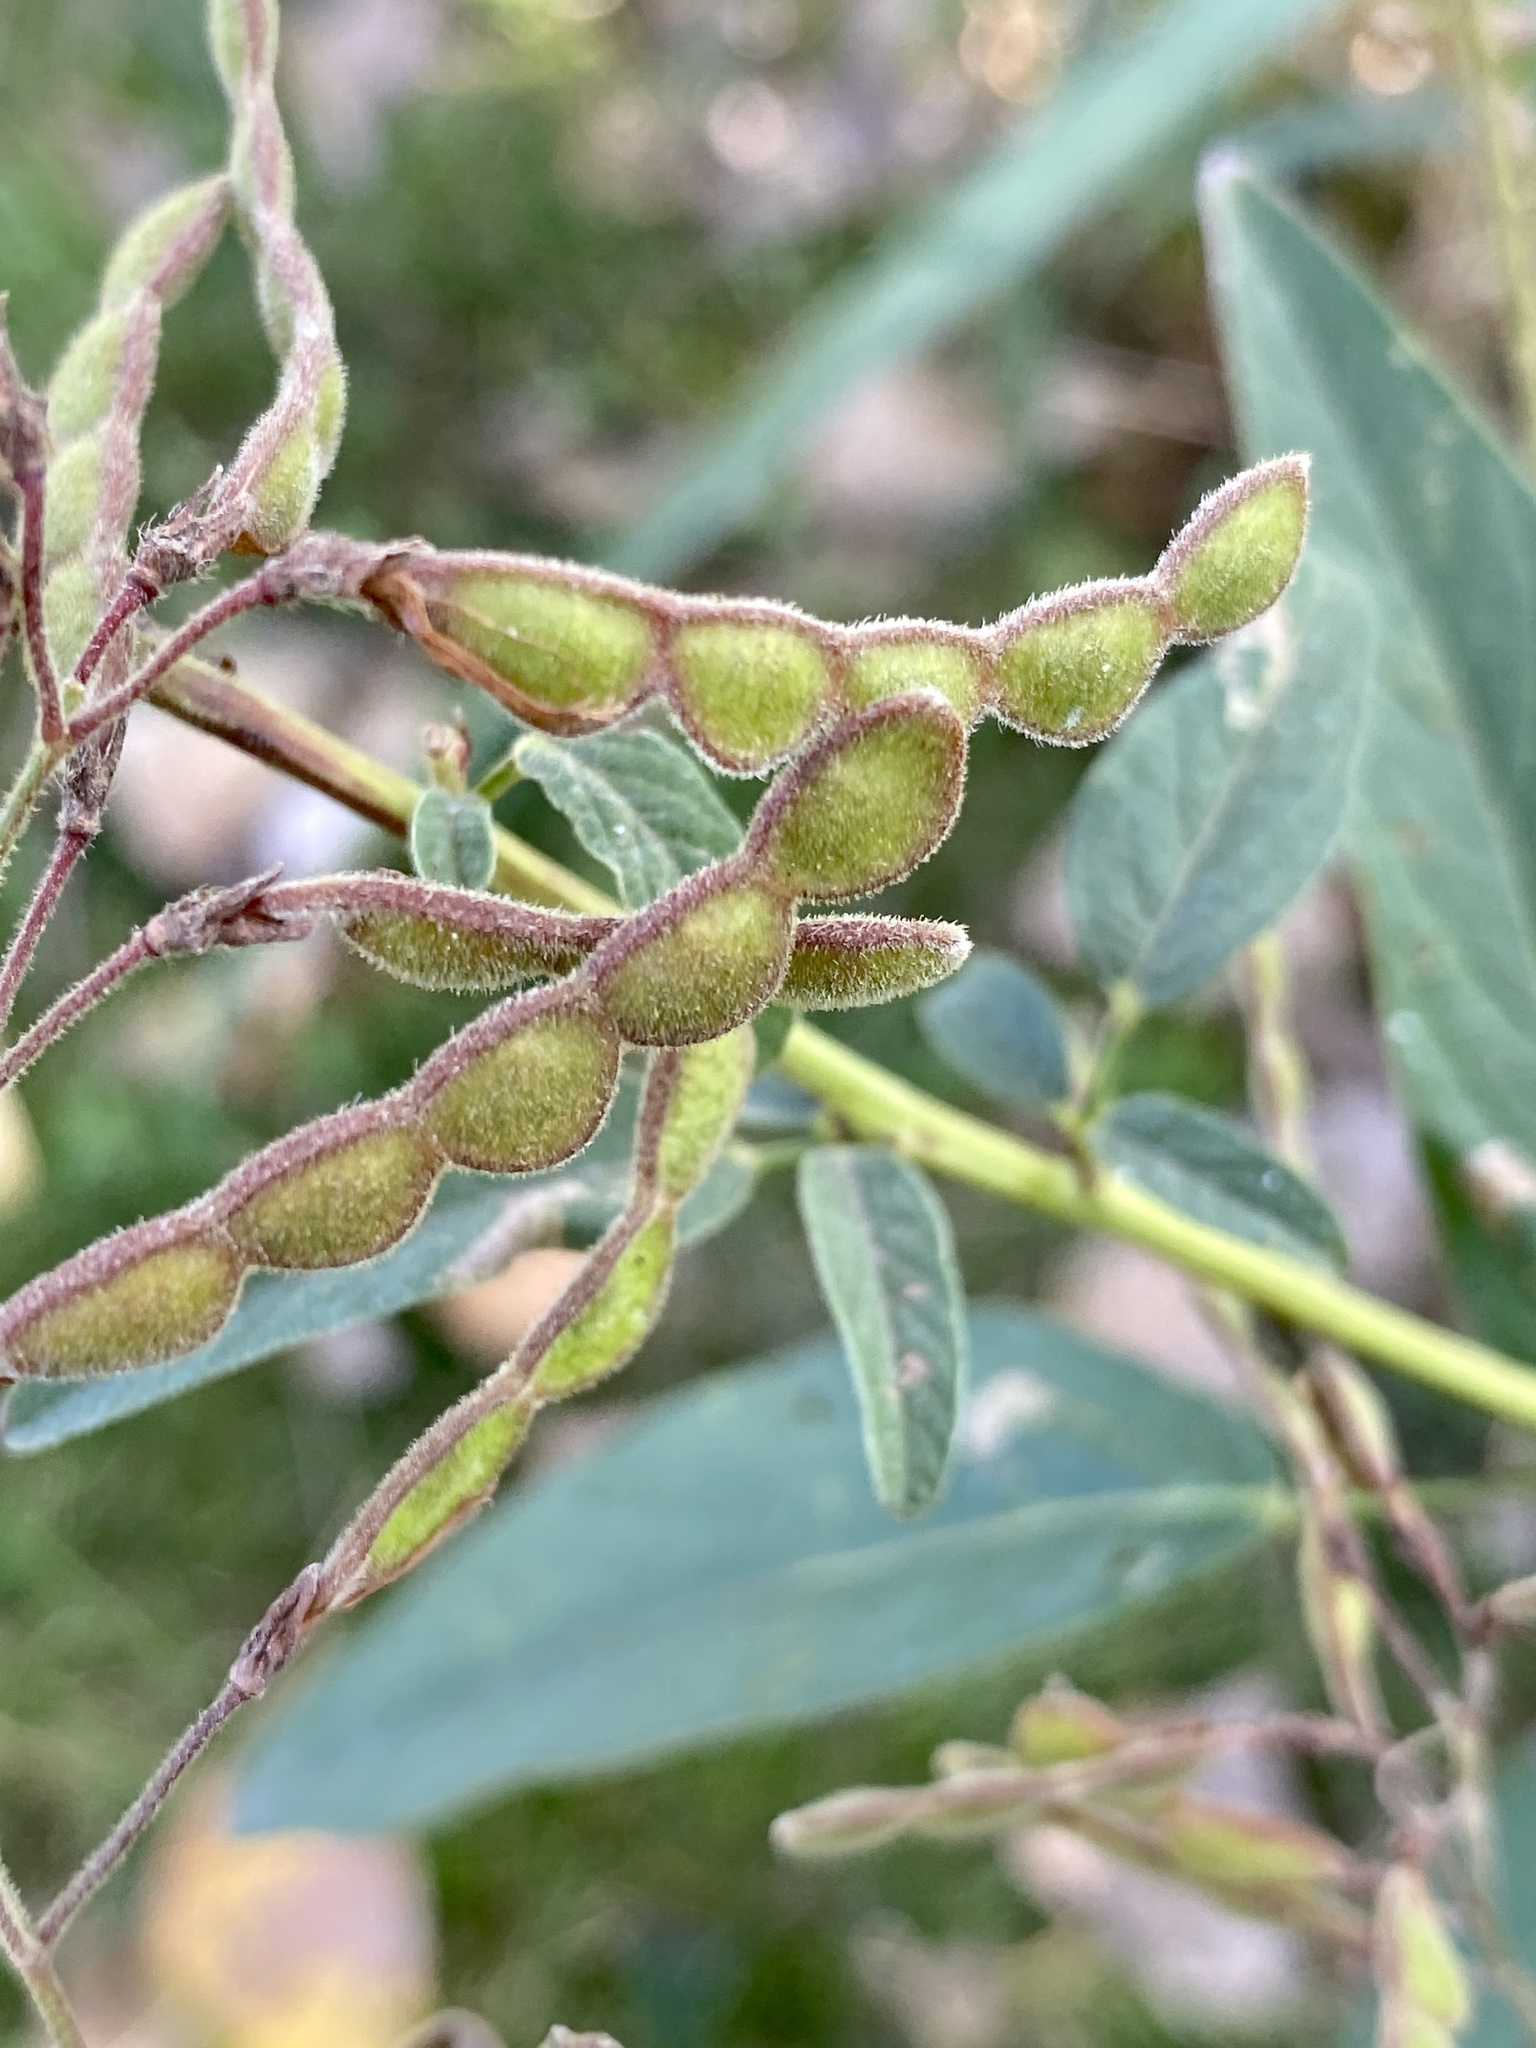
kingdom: Plantae
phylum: Tracheophyta
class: Magnoliopsida
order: Fabales
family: Fabaceae
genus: Desmodium
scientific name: Desmodium canadense
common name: Canada tick-trefoil
